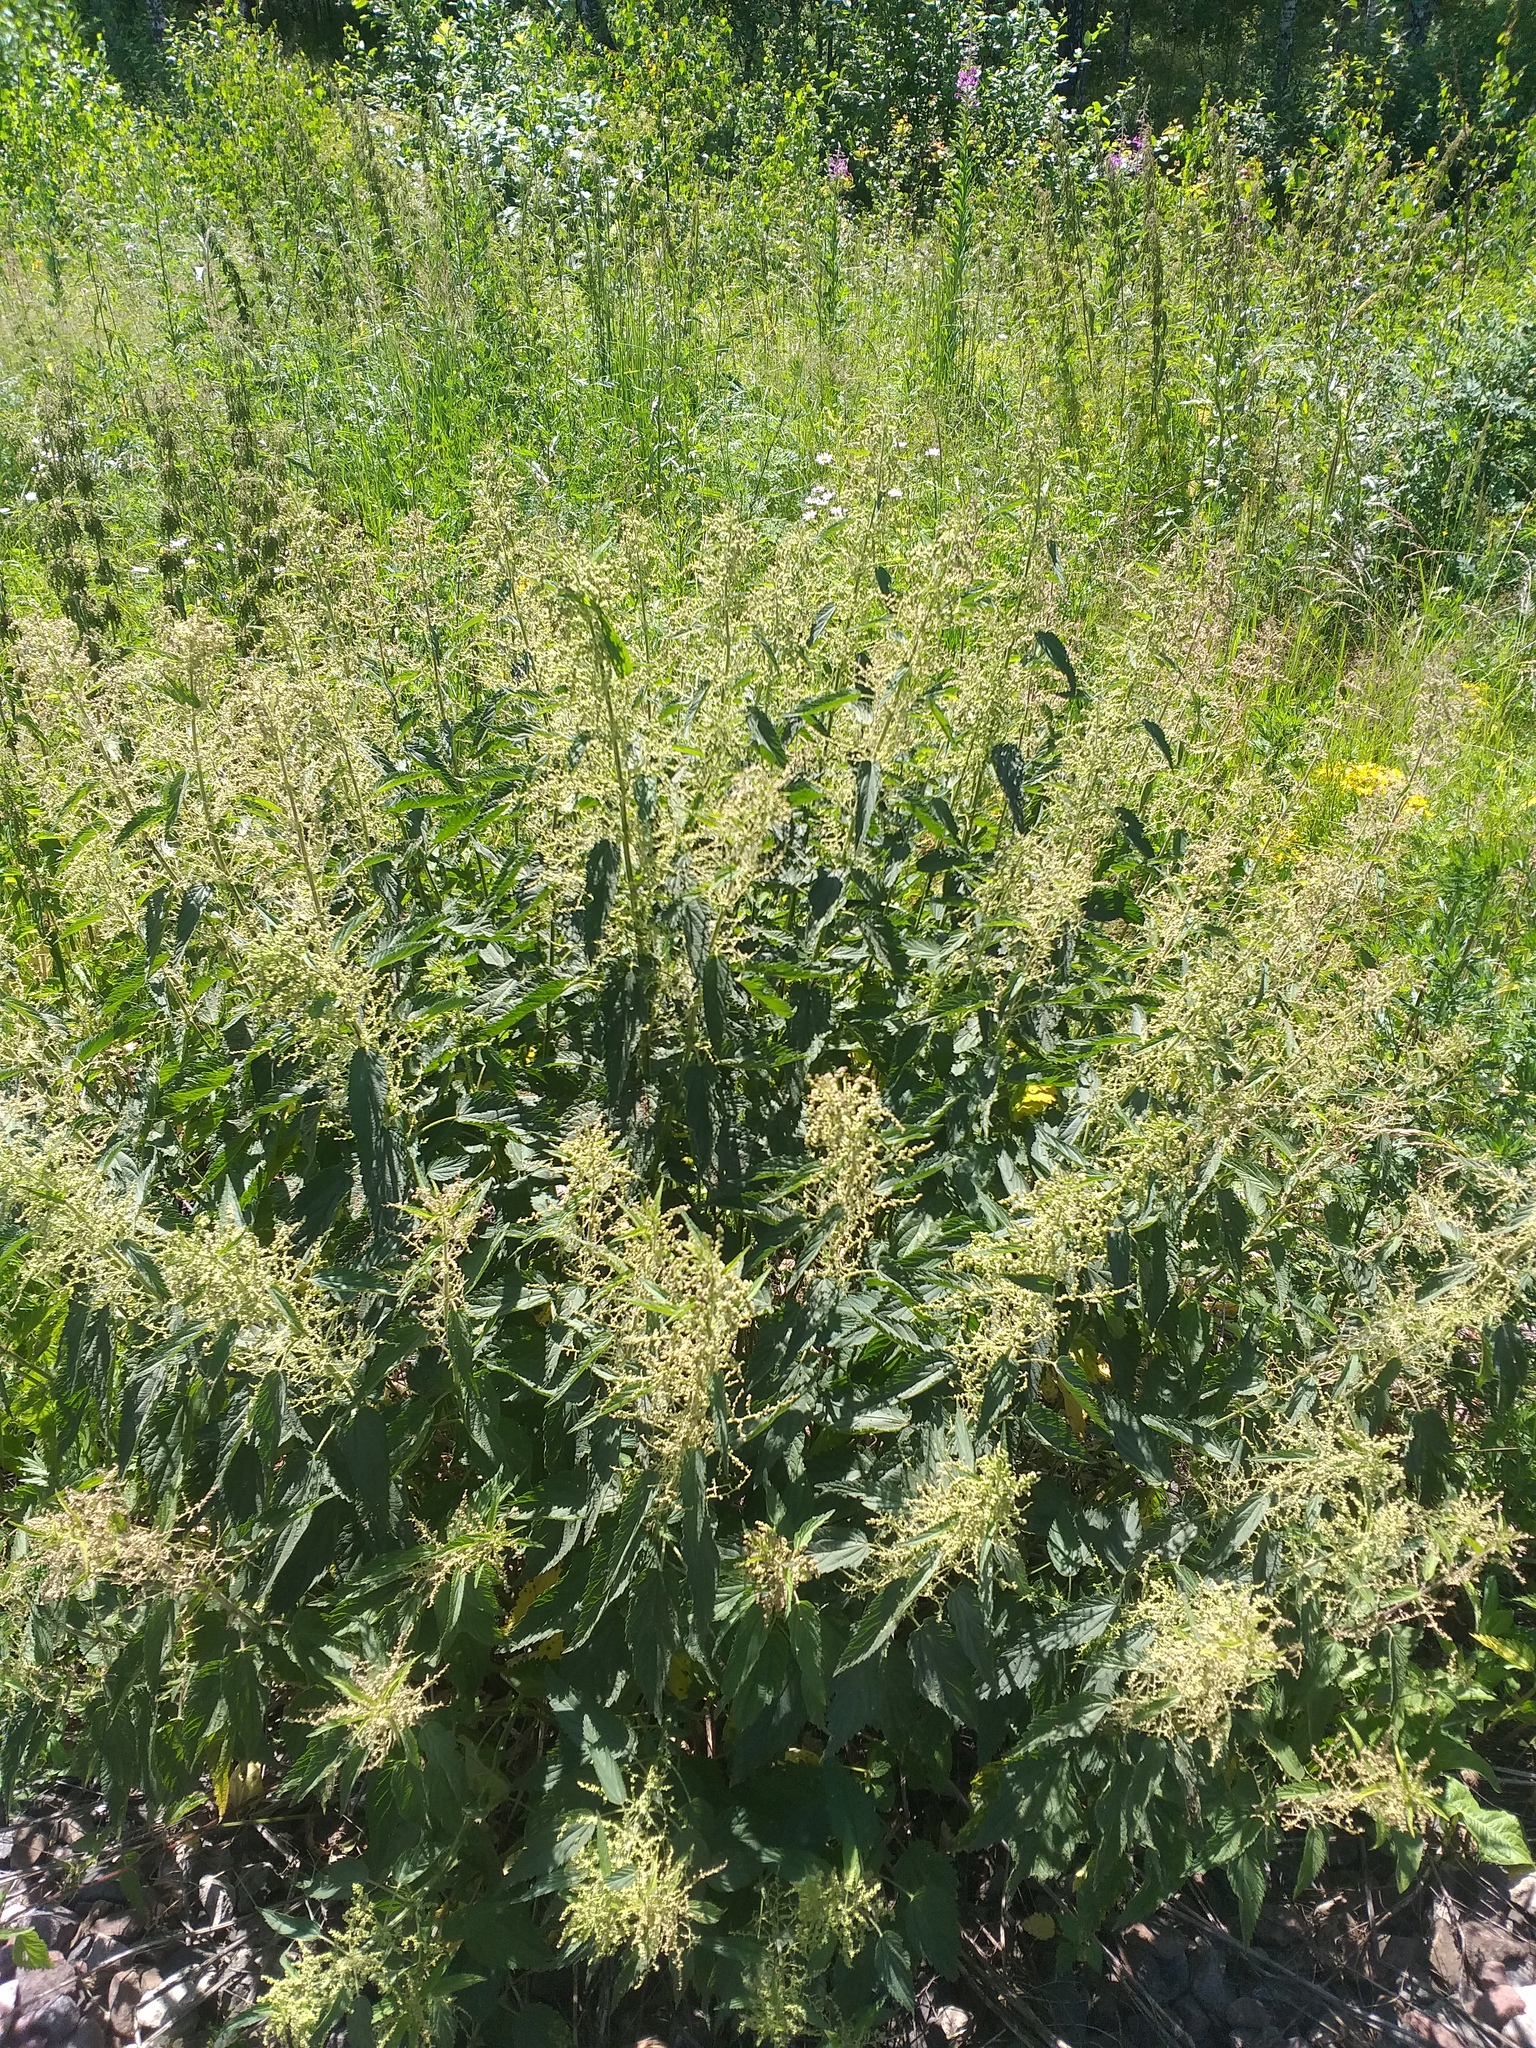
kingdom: Plantae
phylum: Tracheophyta
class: Magnoliopsida
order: Rosales
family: Urticaceae
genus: Urtica
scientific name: Urtica dioica
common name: Common nettle
